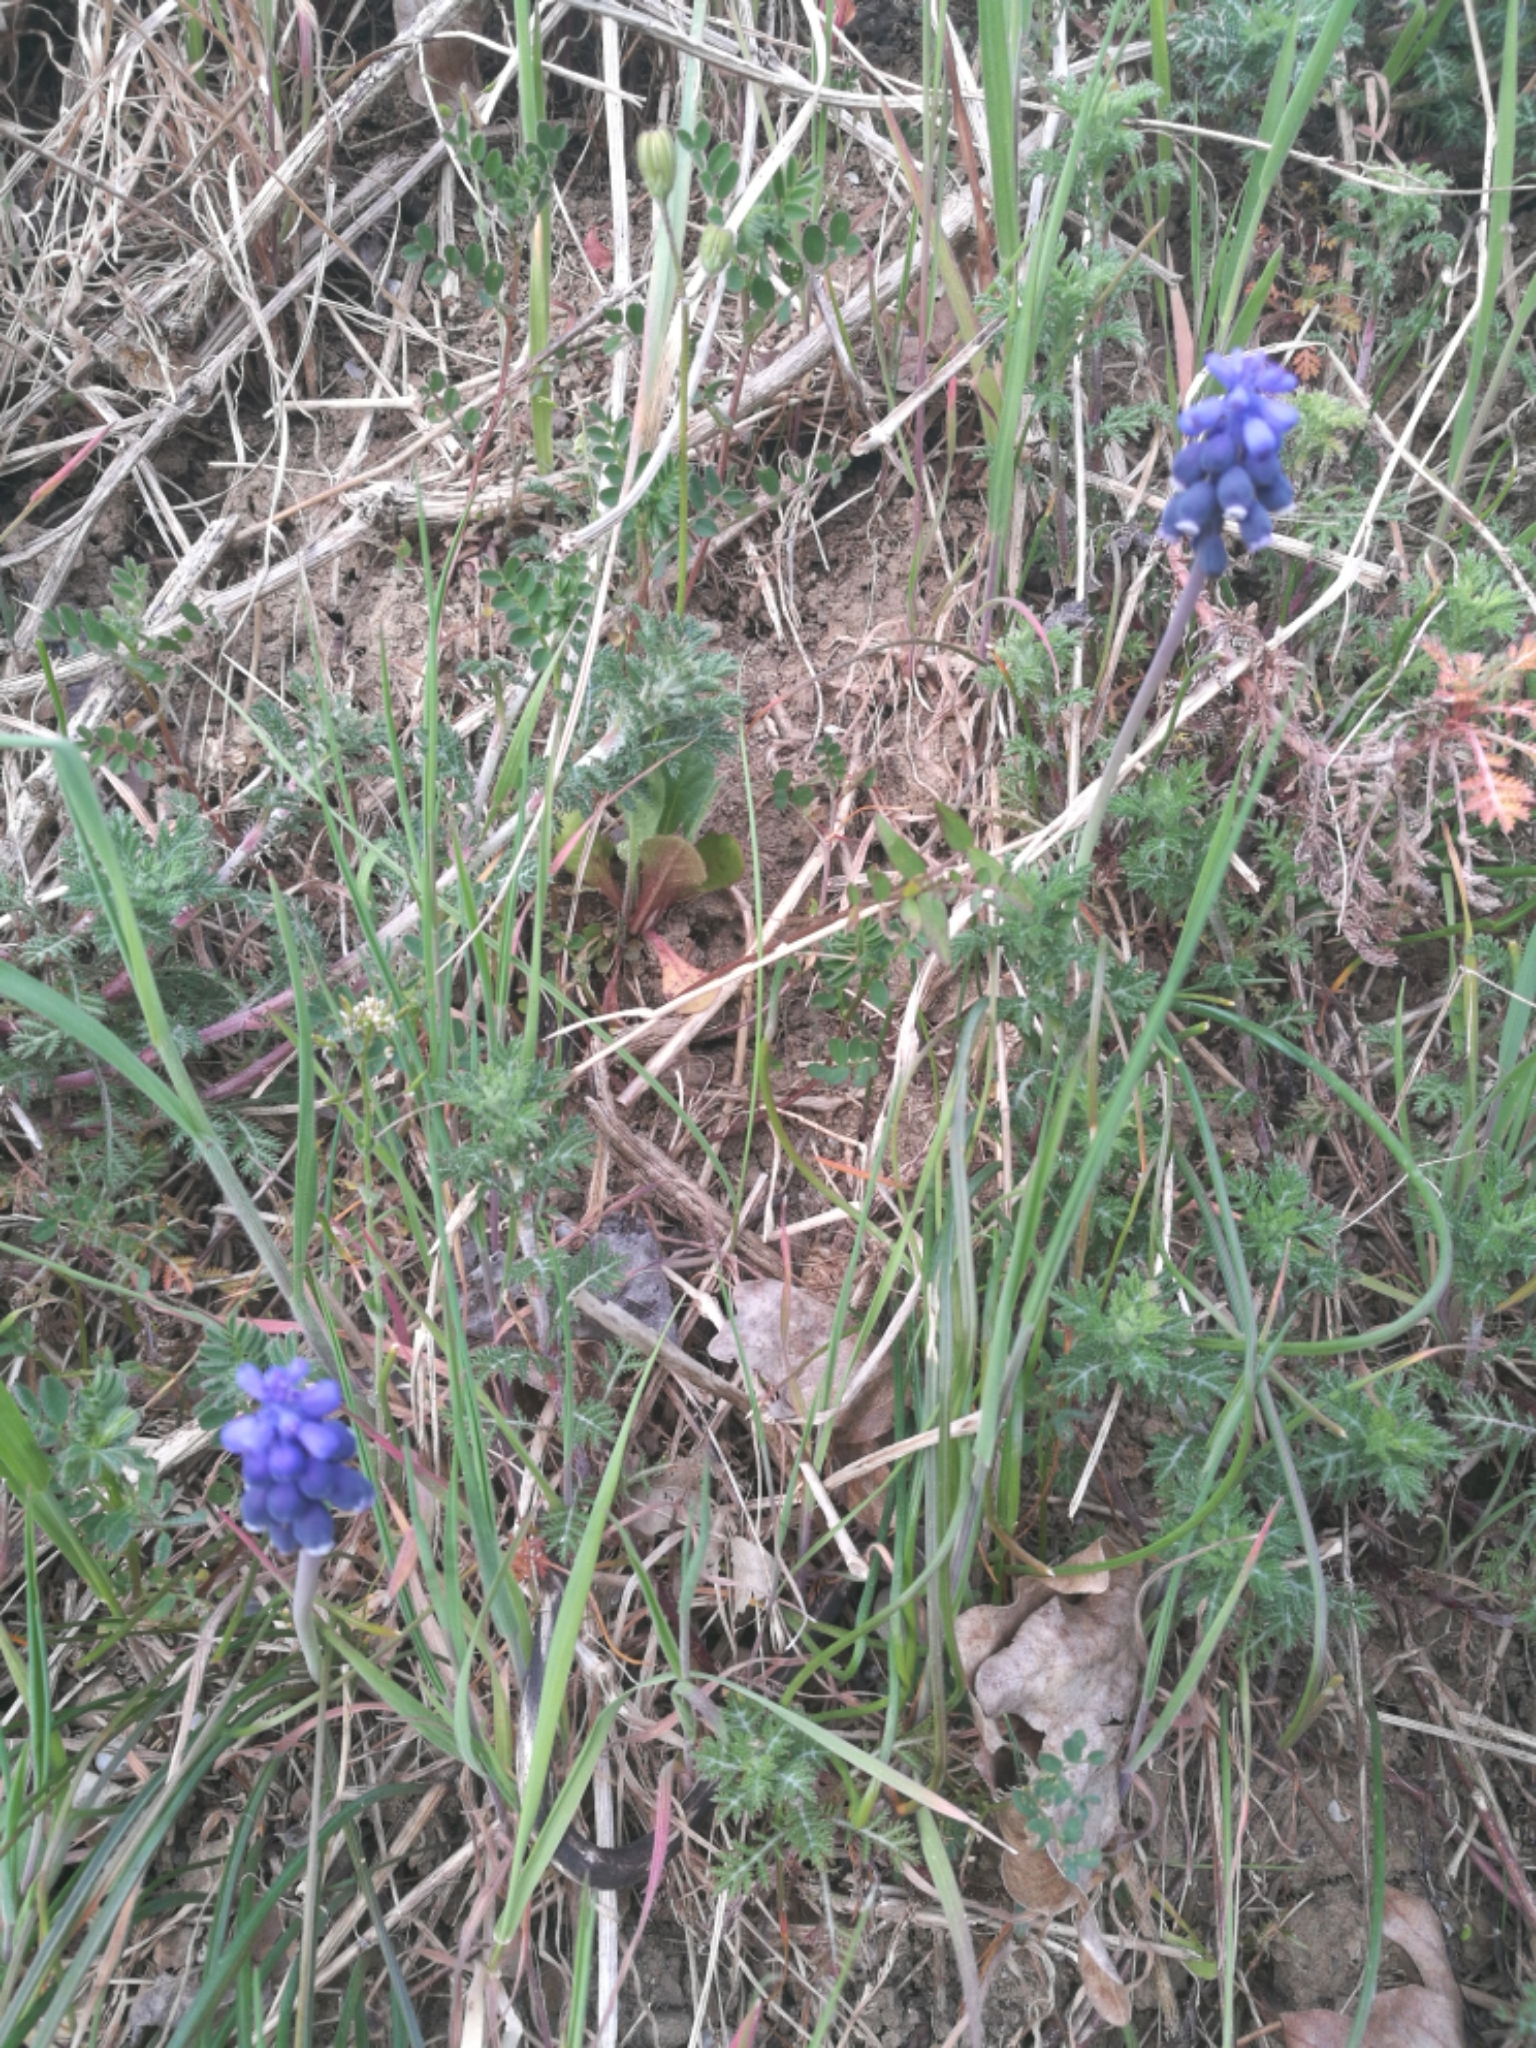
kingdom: Plantae
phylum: Tracheophyta
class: Liliopsida
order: Asparagales
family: Asparagaceae
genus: Muscari
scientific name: Muscari neglectum
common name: Grape-hyacinth
